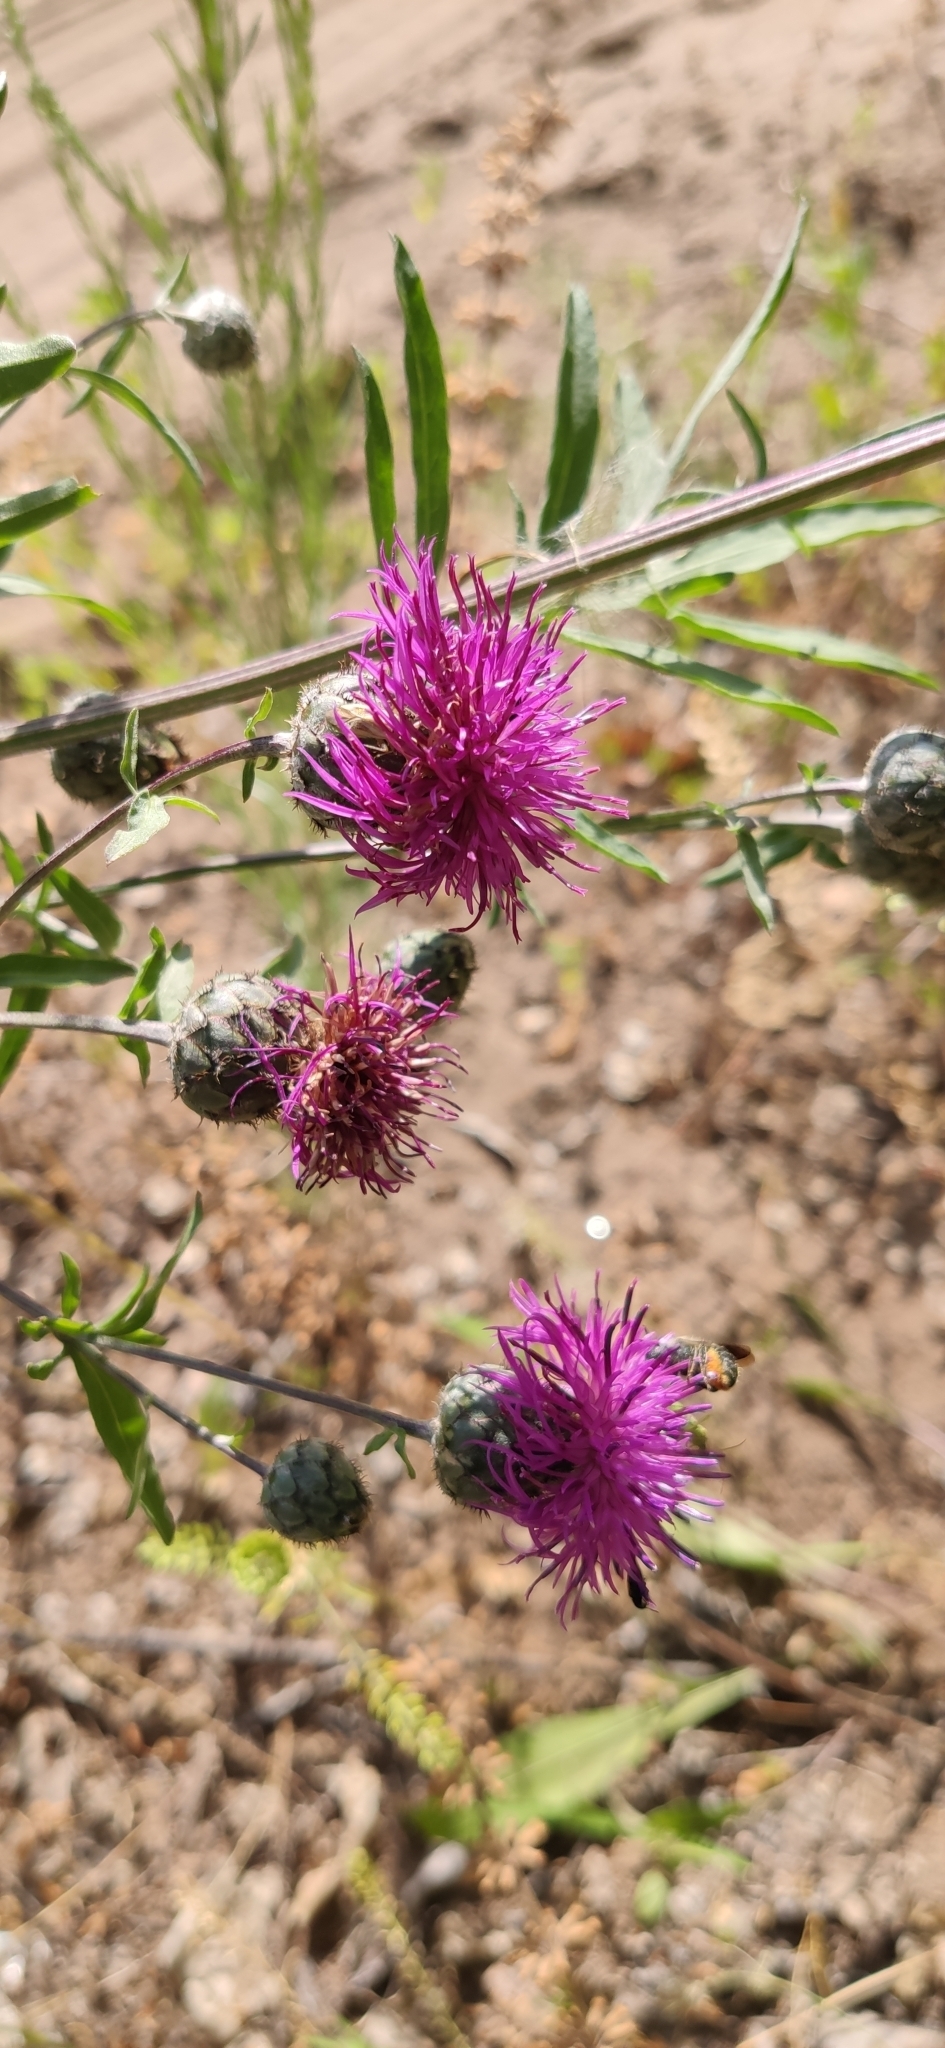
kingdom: Plantae
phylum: Tracheophyta
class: Magnoliopsida
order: Asterales
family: Asteraceae
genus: Centaurea
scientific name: Centaurea scabiosa
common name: Greater knapweed
